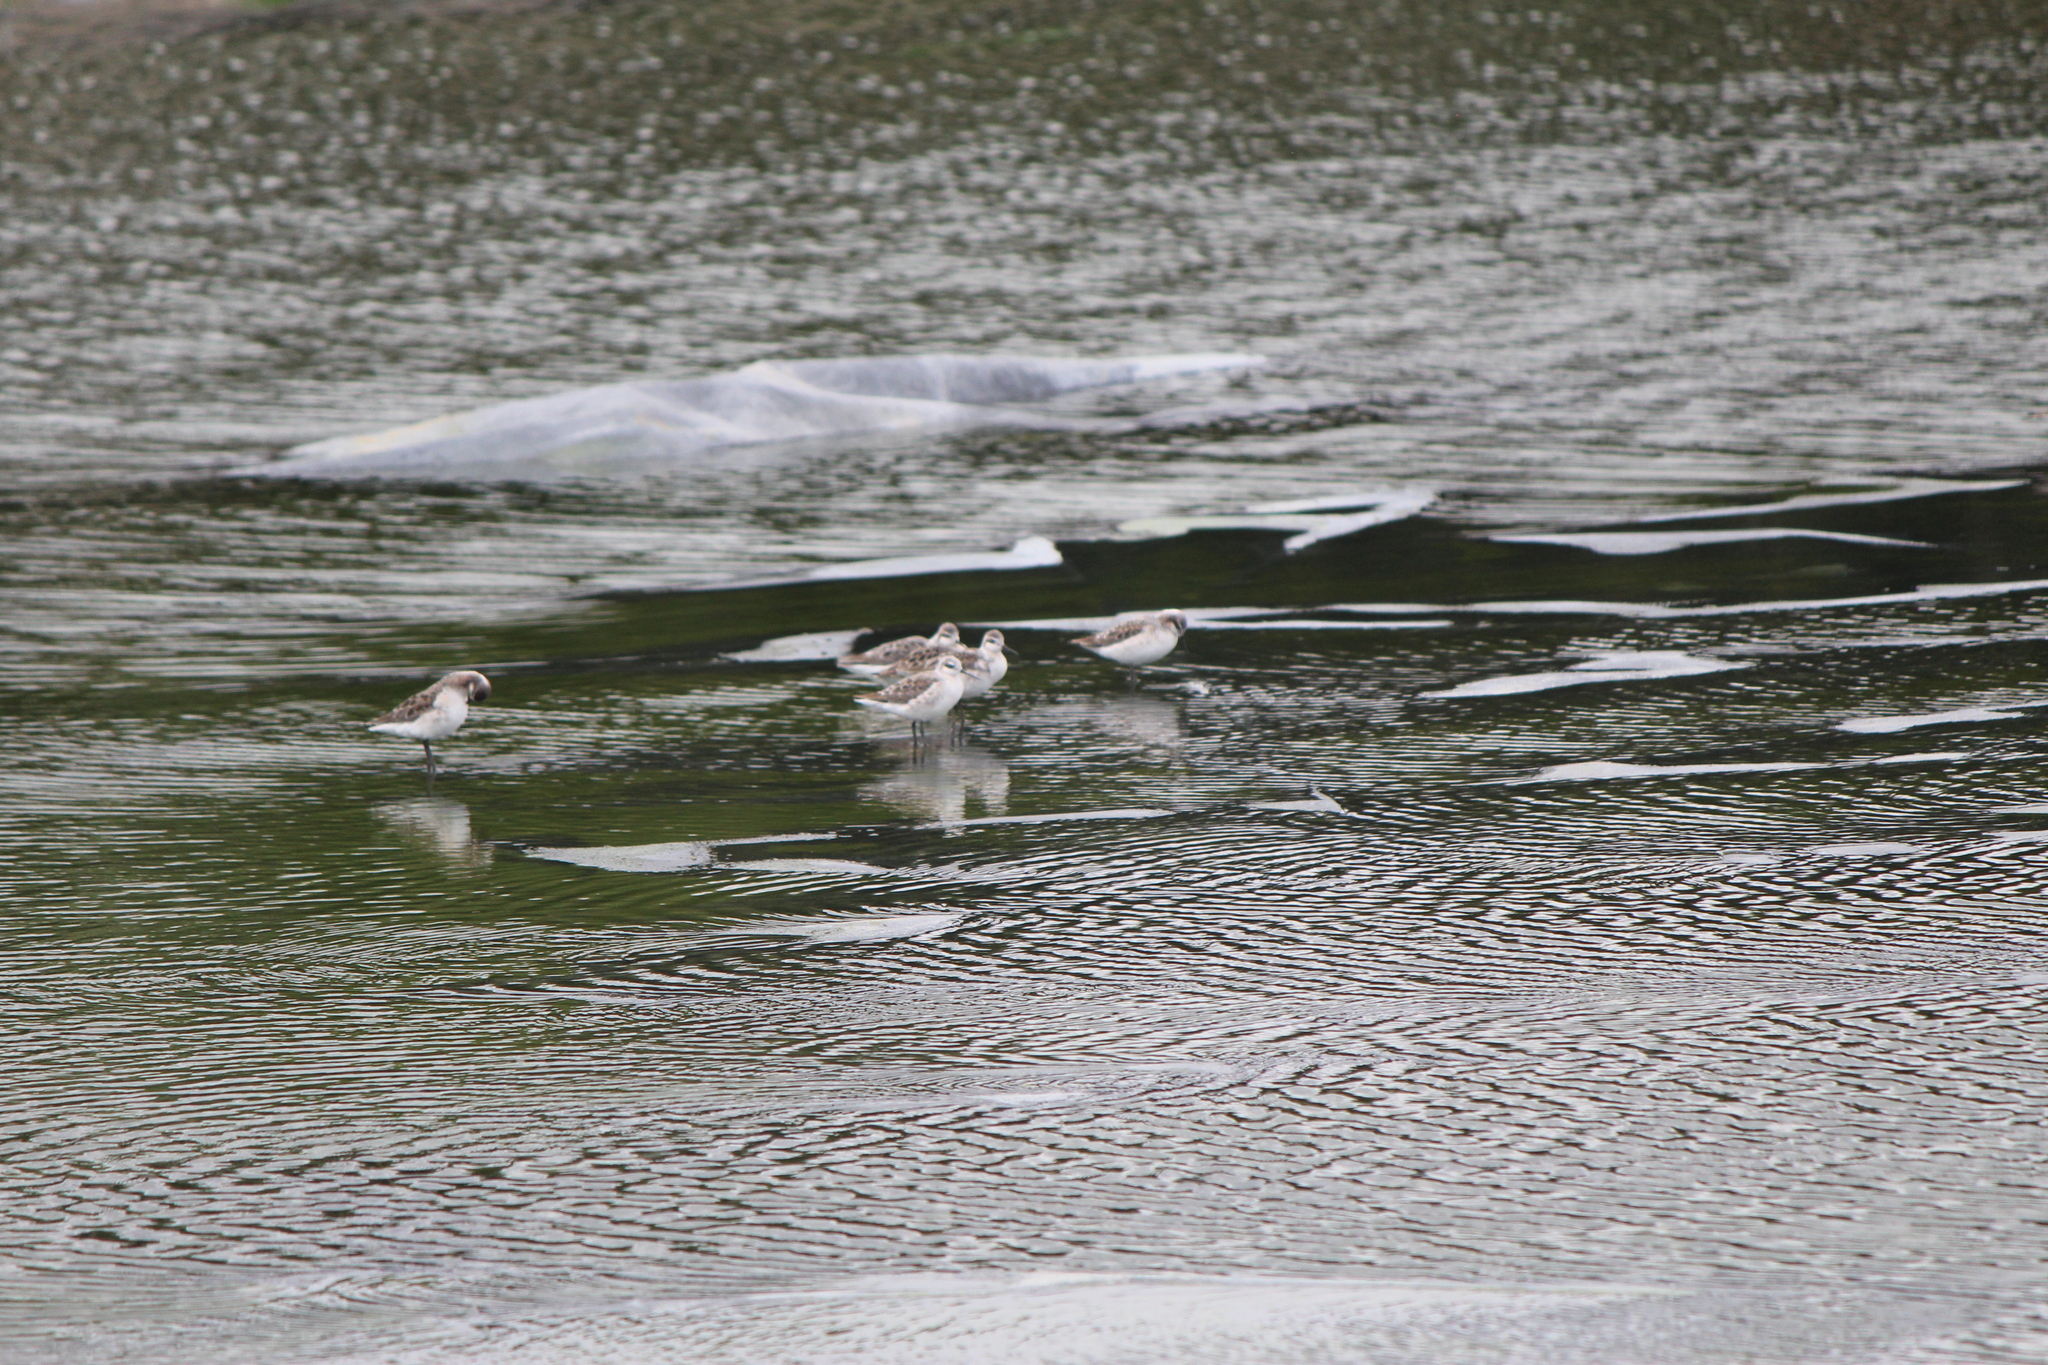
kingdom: Animalia
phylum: Chordata
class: Aves
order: Charadriiformes
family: Scolopacidae
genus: Phalaropus
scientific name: Phalaropus tricolor
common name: Wilson's phalarope
